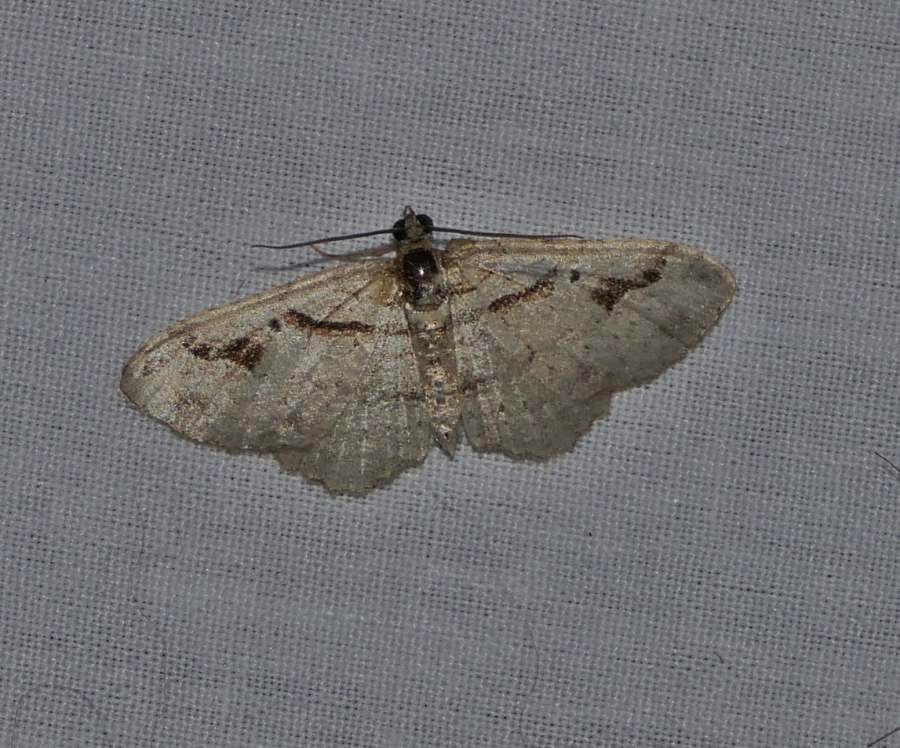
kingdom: Animalia
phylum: Arthropoda
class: Insecta
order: Lepidoptera
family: Geometridae
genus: Costaconvexa
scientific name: Costaconvexa centrostrigaria
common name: Bent-line carpet
